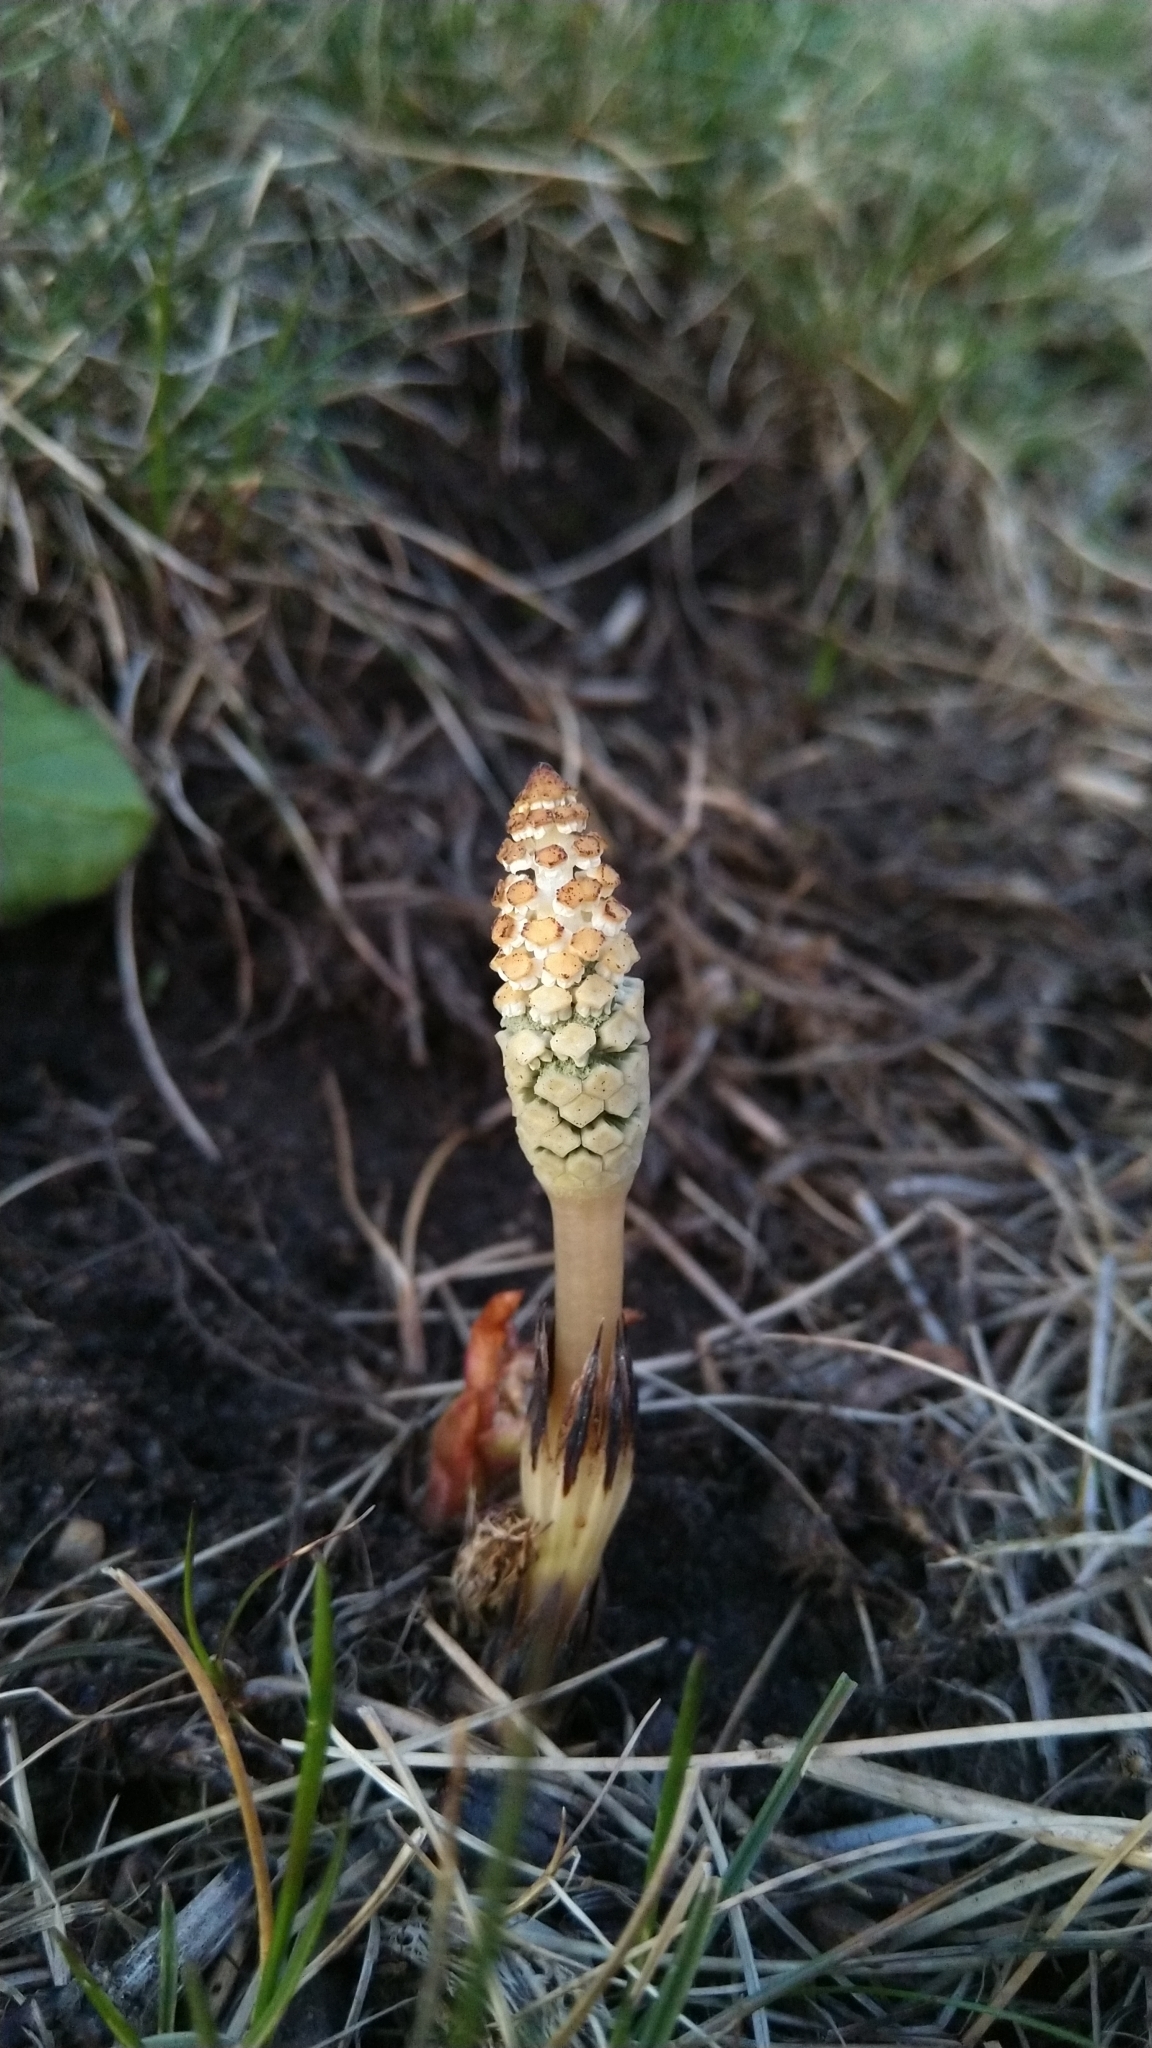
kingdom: Plantae
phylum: Tracheophyta
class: Polypodiopsida
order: Equisetales
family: Equisetaceae
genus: Equisetum
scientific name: Equisetum arvense
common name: Field horsetail
